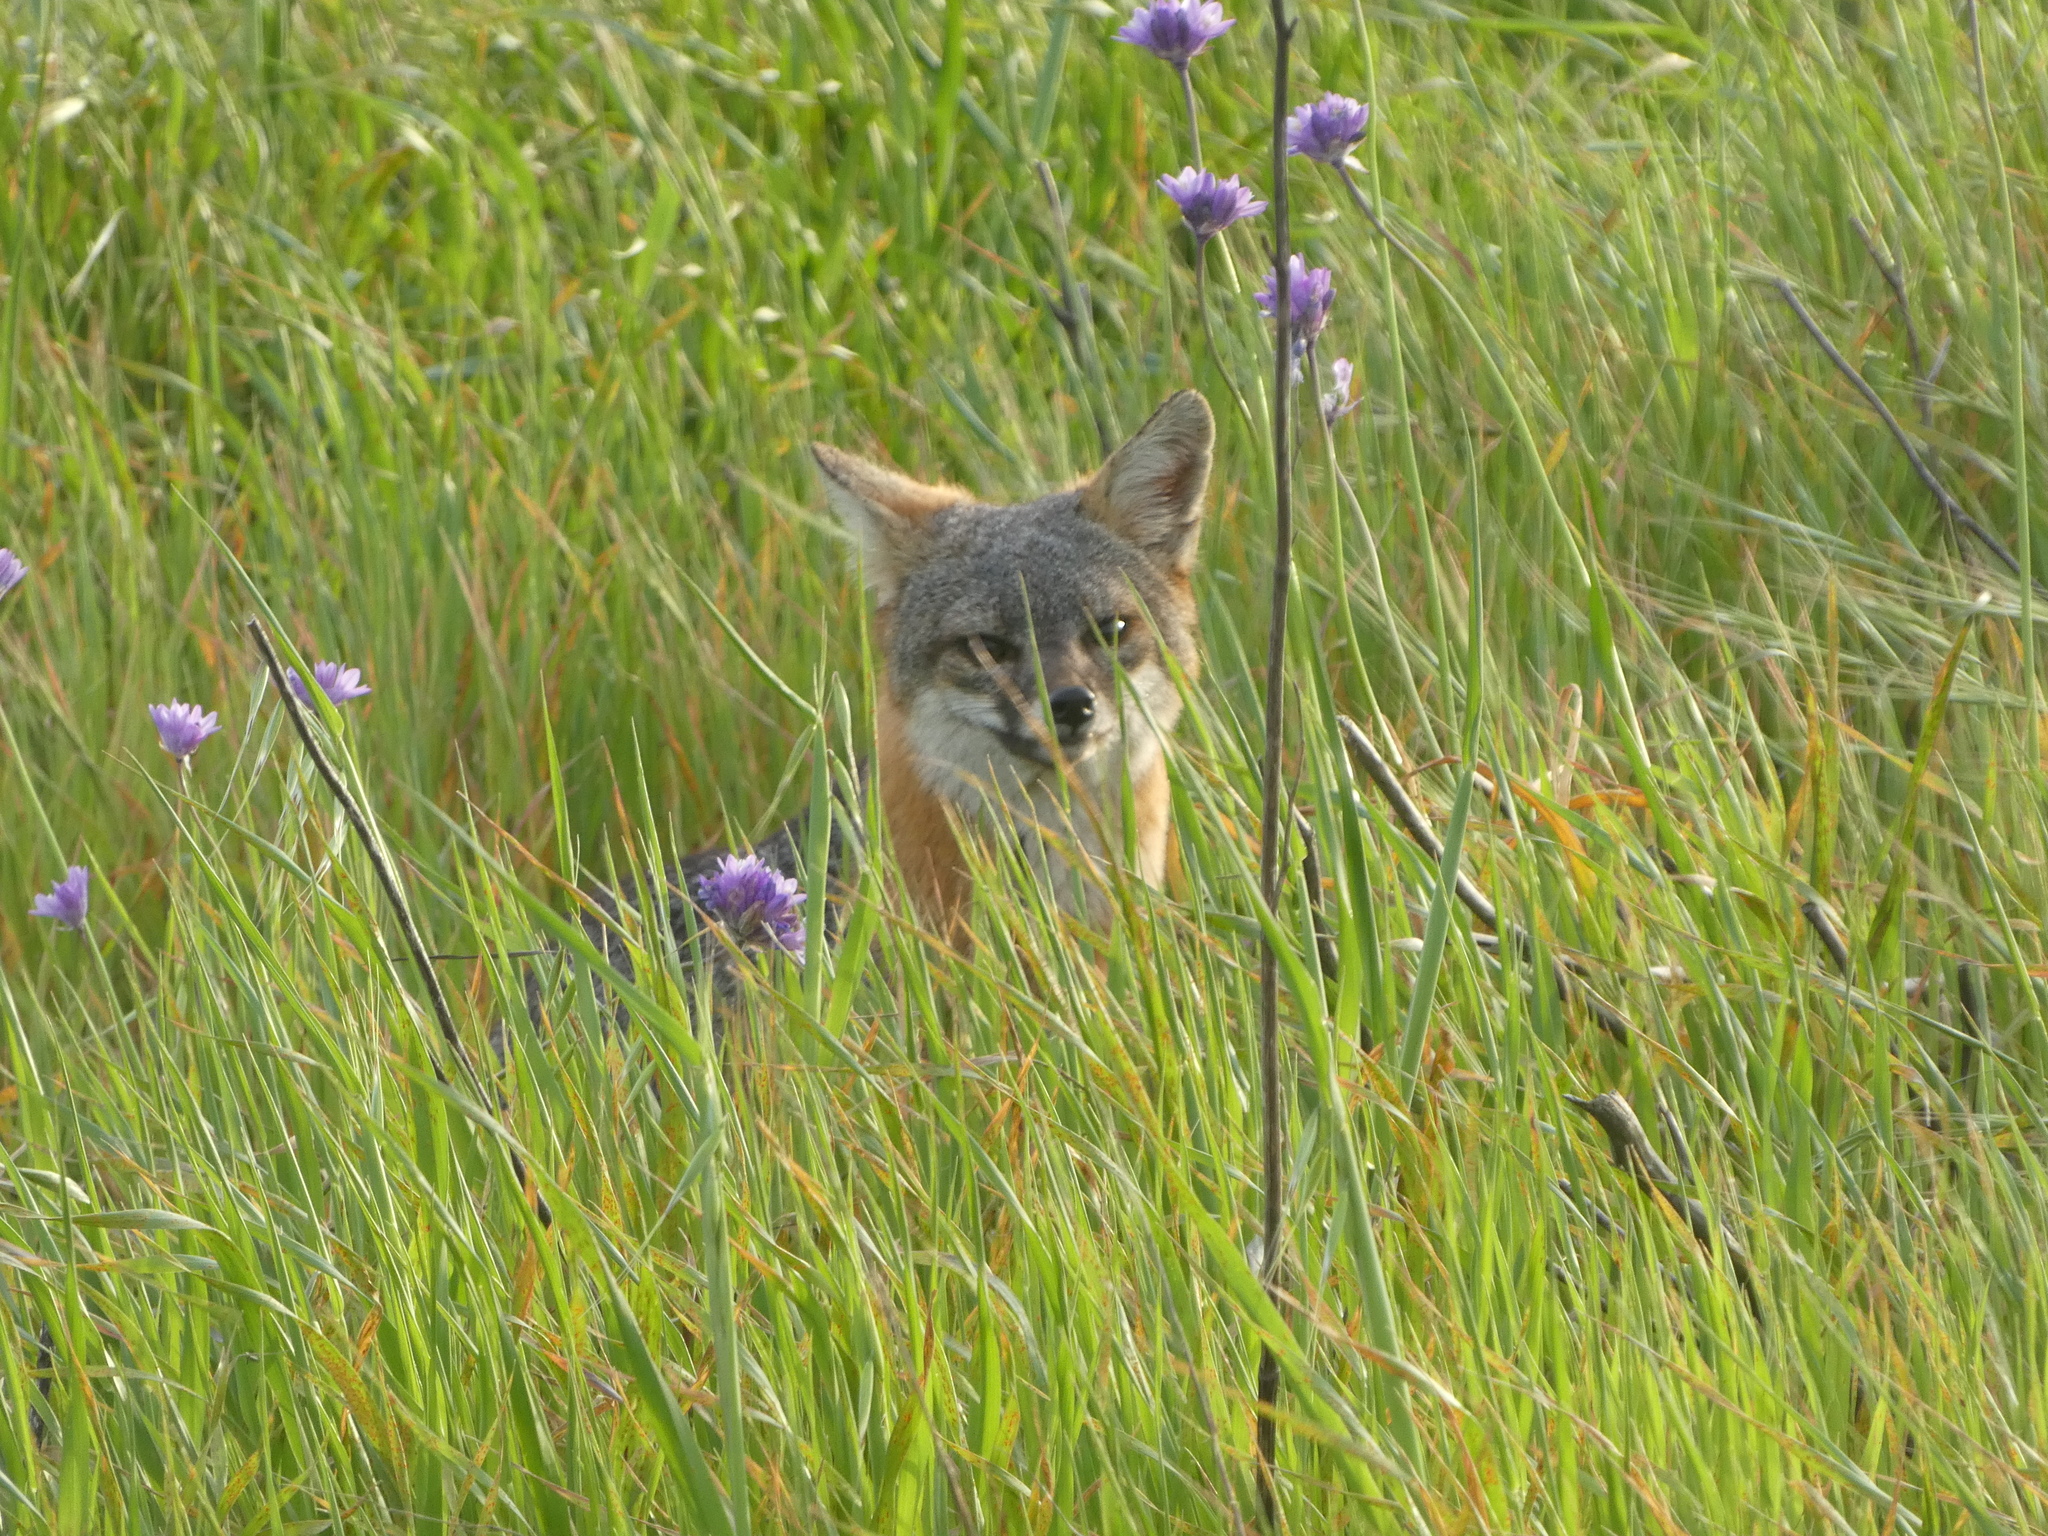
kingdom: Animalia
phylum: Chordata
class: Mammalia
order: Carnivora
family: Canidae
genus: Urocyon
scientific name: Urocyon littoralis
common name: Island gray fox
